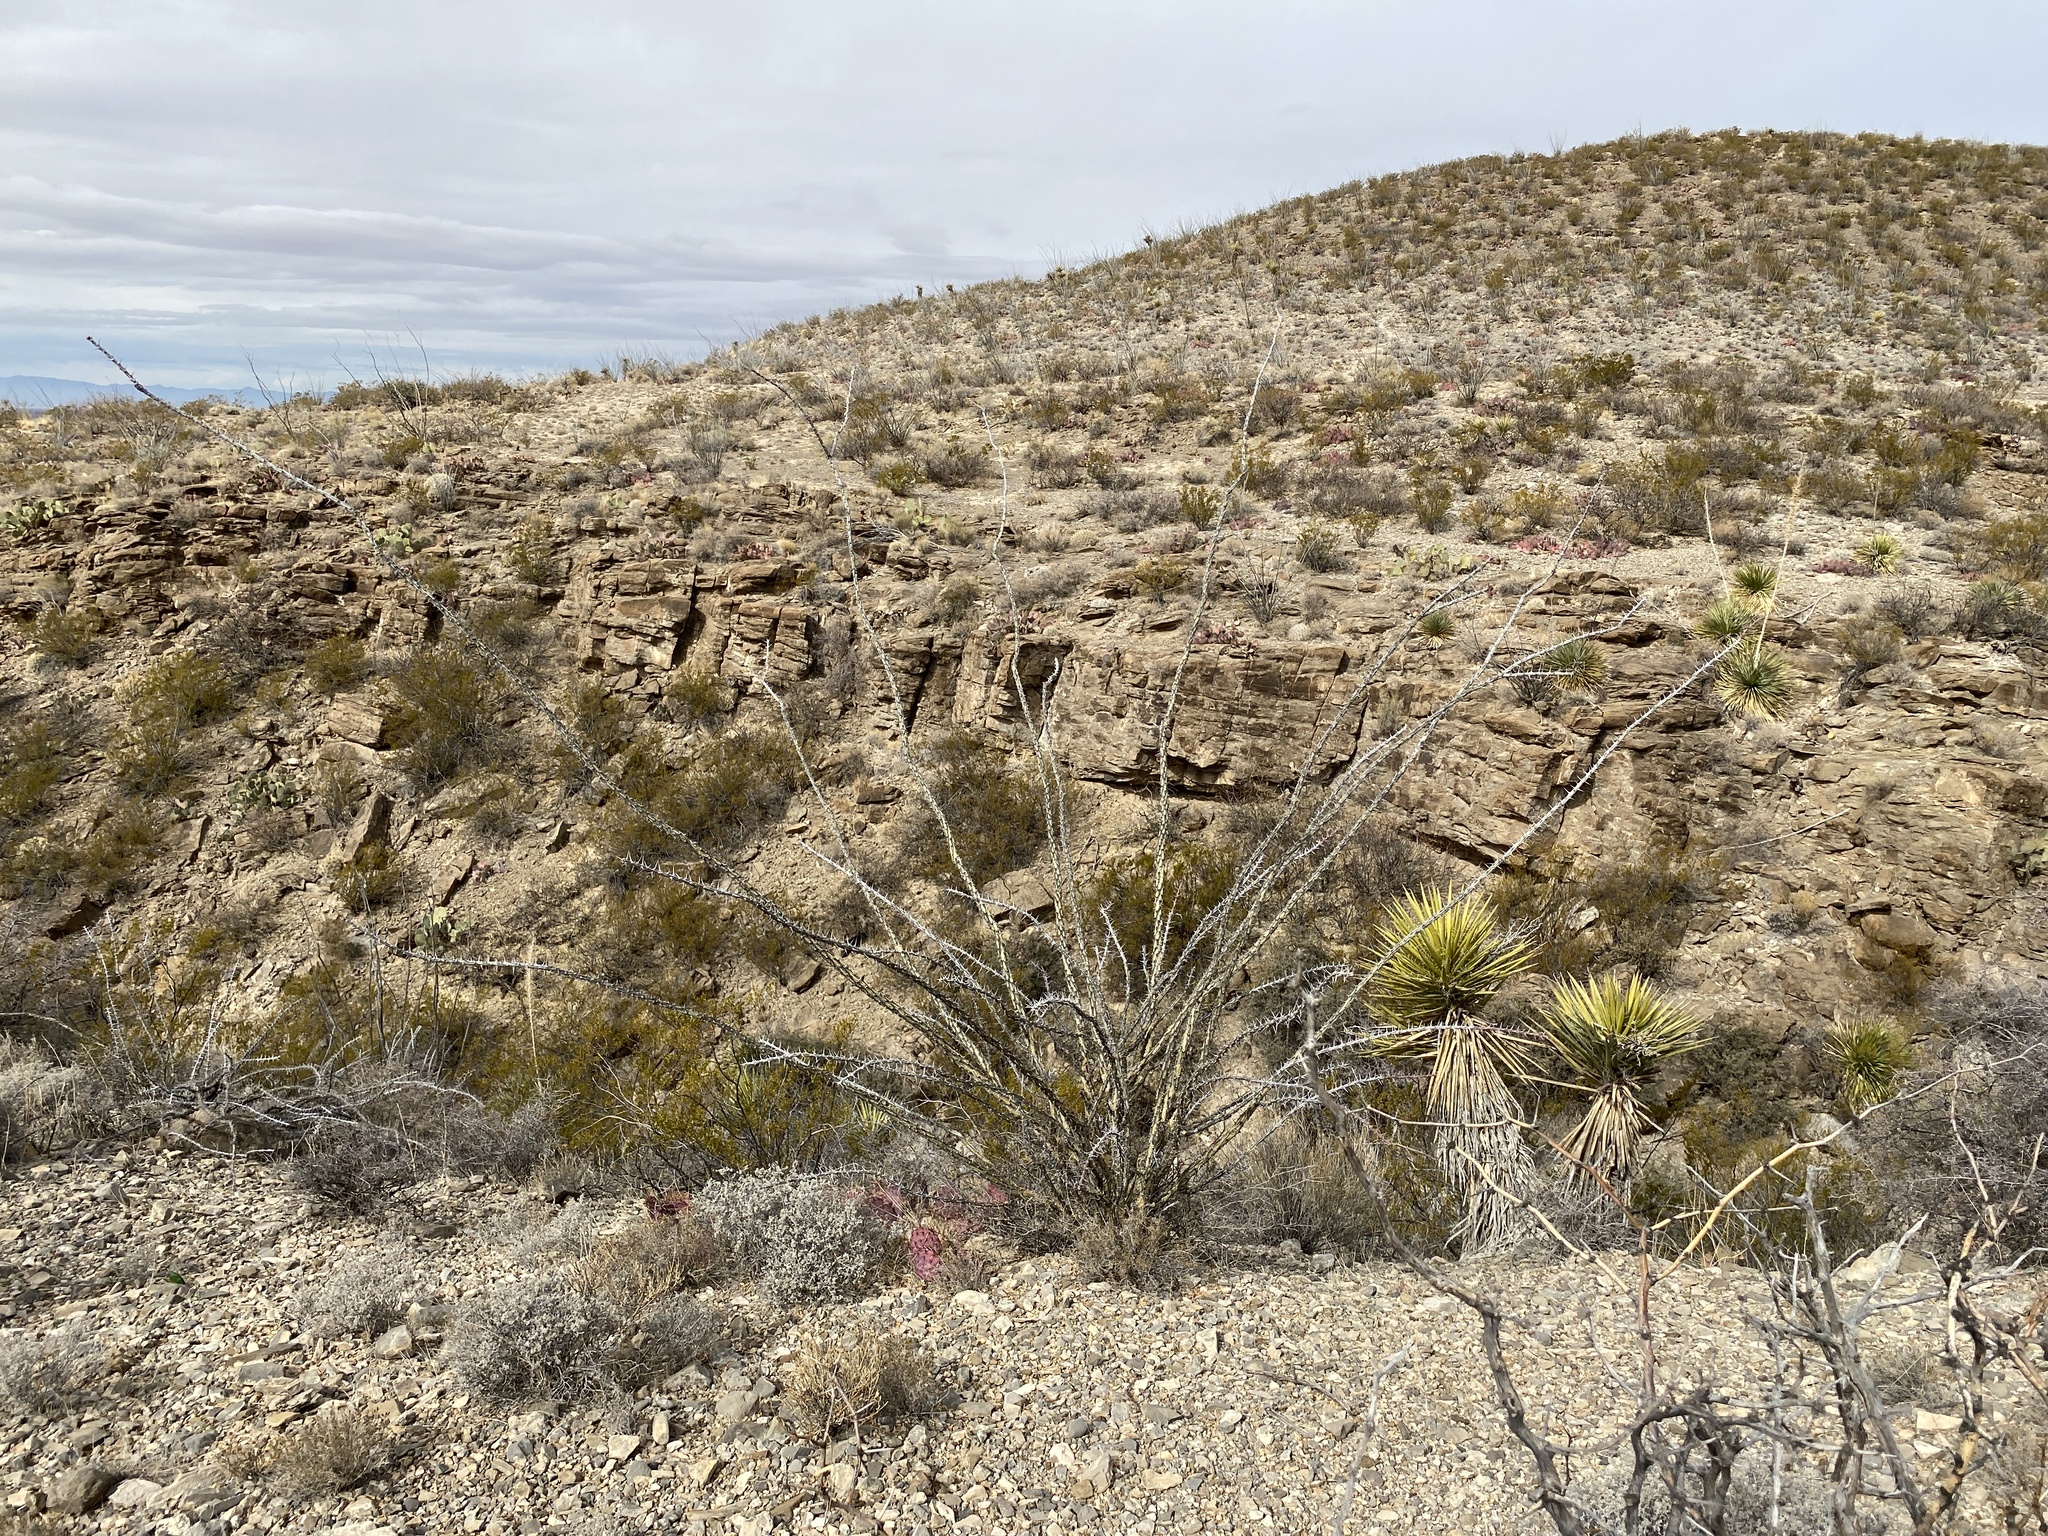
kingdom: Plantae
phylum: Tracheophyta
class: Magnoliopsida
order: Ericales
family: Fouquieriaceae
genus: Fouquieria
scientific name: Fouquieria splendens
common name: Vine-cactus
